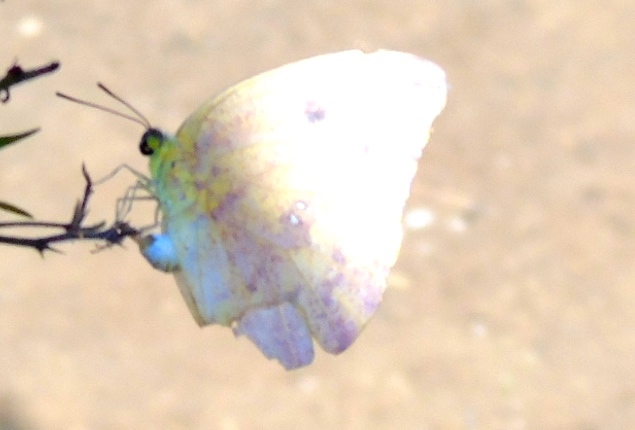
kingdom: Animalia
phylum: Arthropoda
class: Insecta
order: Lepidoptera
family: Pieridae
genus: Phoebis
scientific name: Phoebis agarithe
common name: Large orange sulphur
